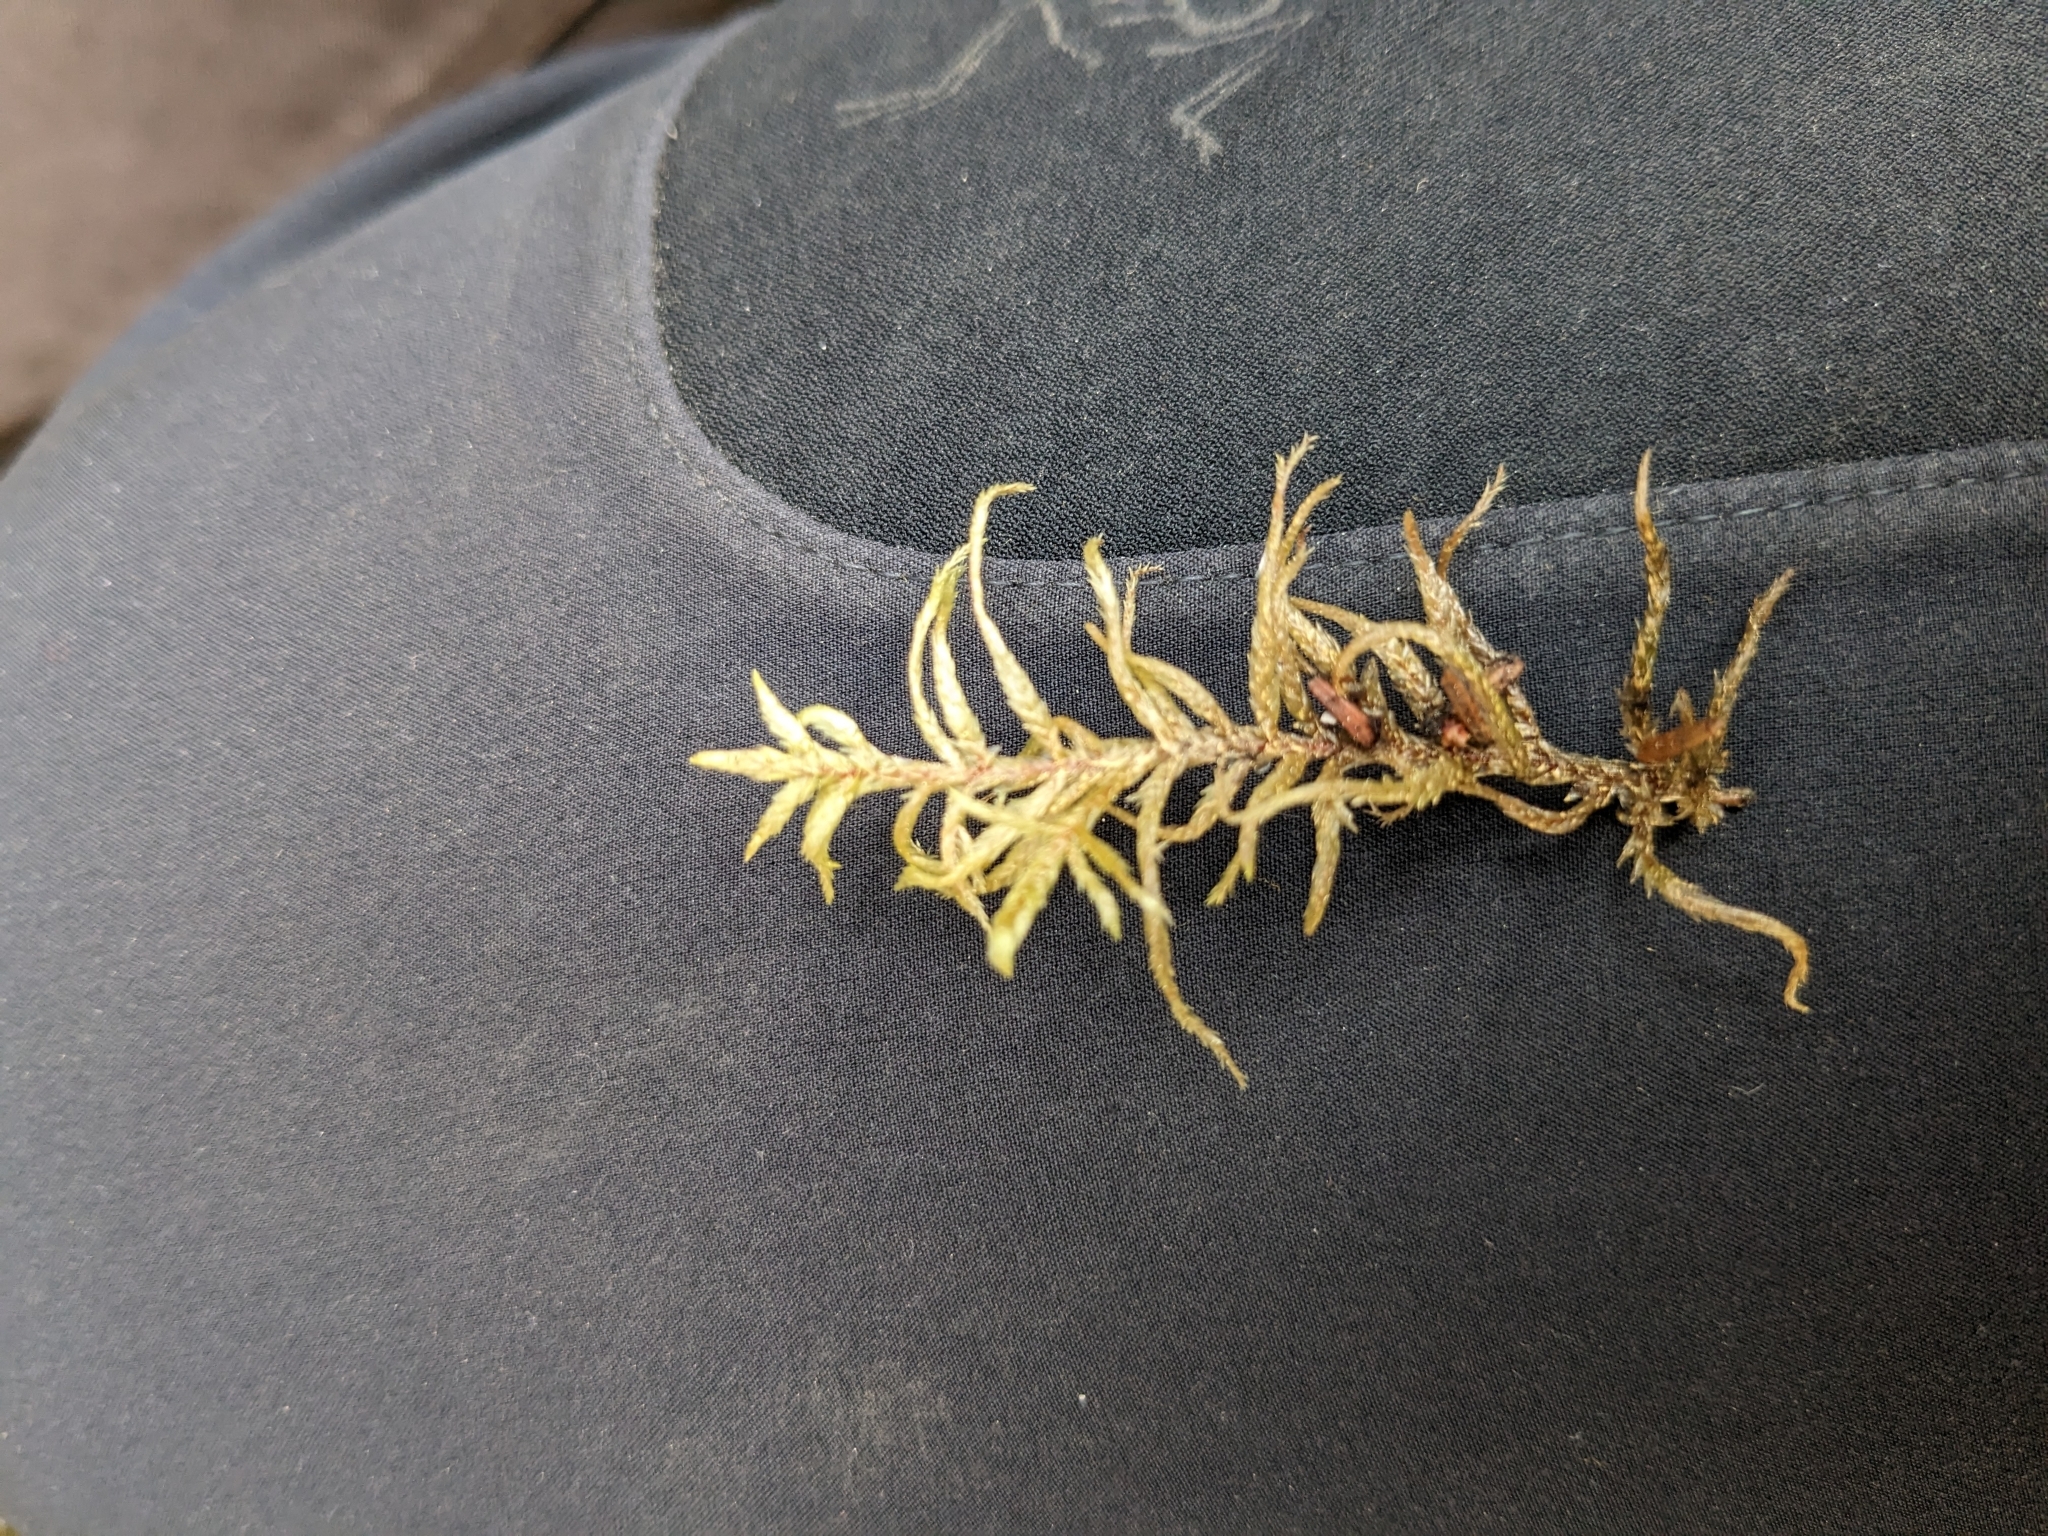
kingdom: Plantae
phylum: Bryophyta
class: Bryopsida
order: Hypnales
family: Hylocomiaceae
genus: Pleurozium
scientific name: Pleurozium schreberi
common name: Red-stemmed feather moss
